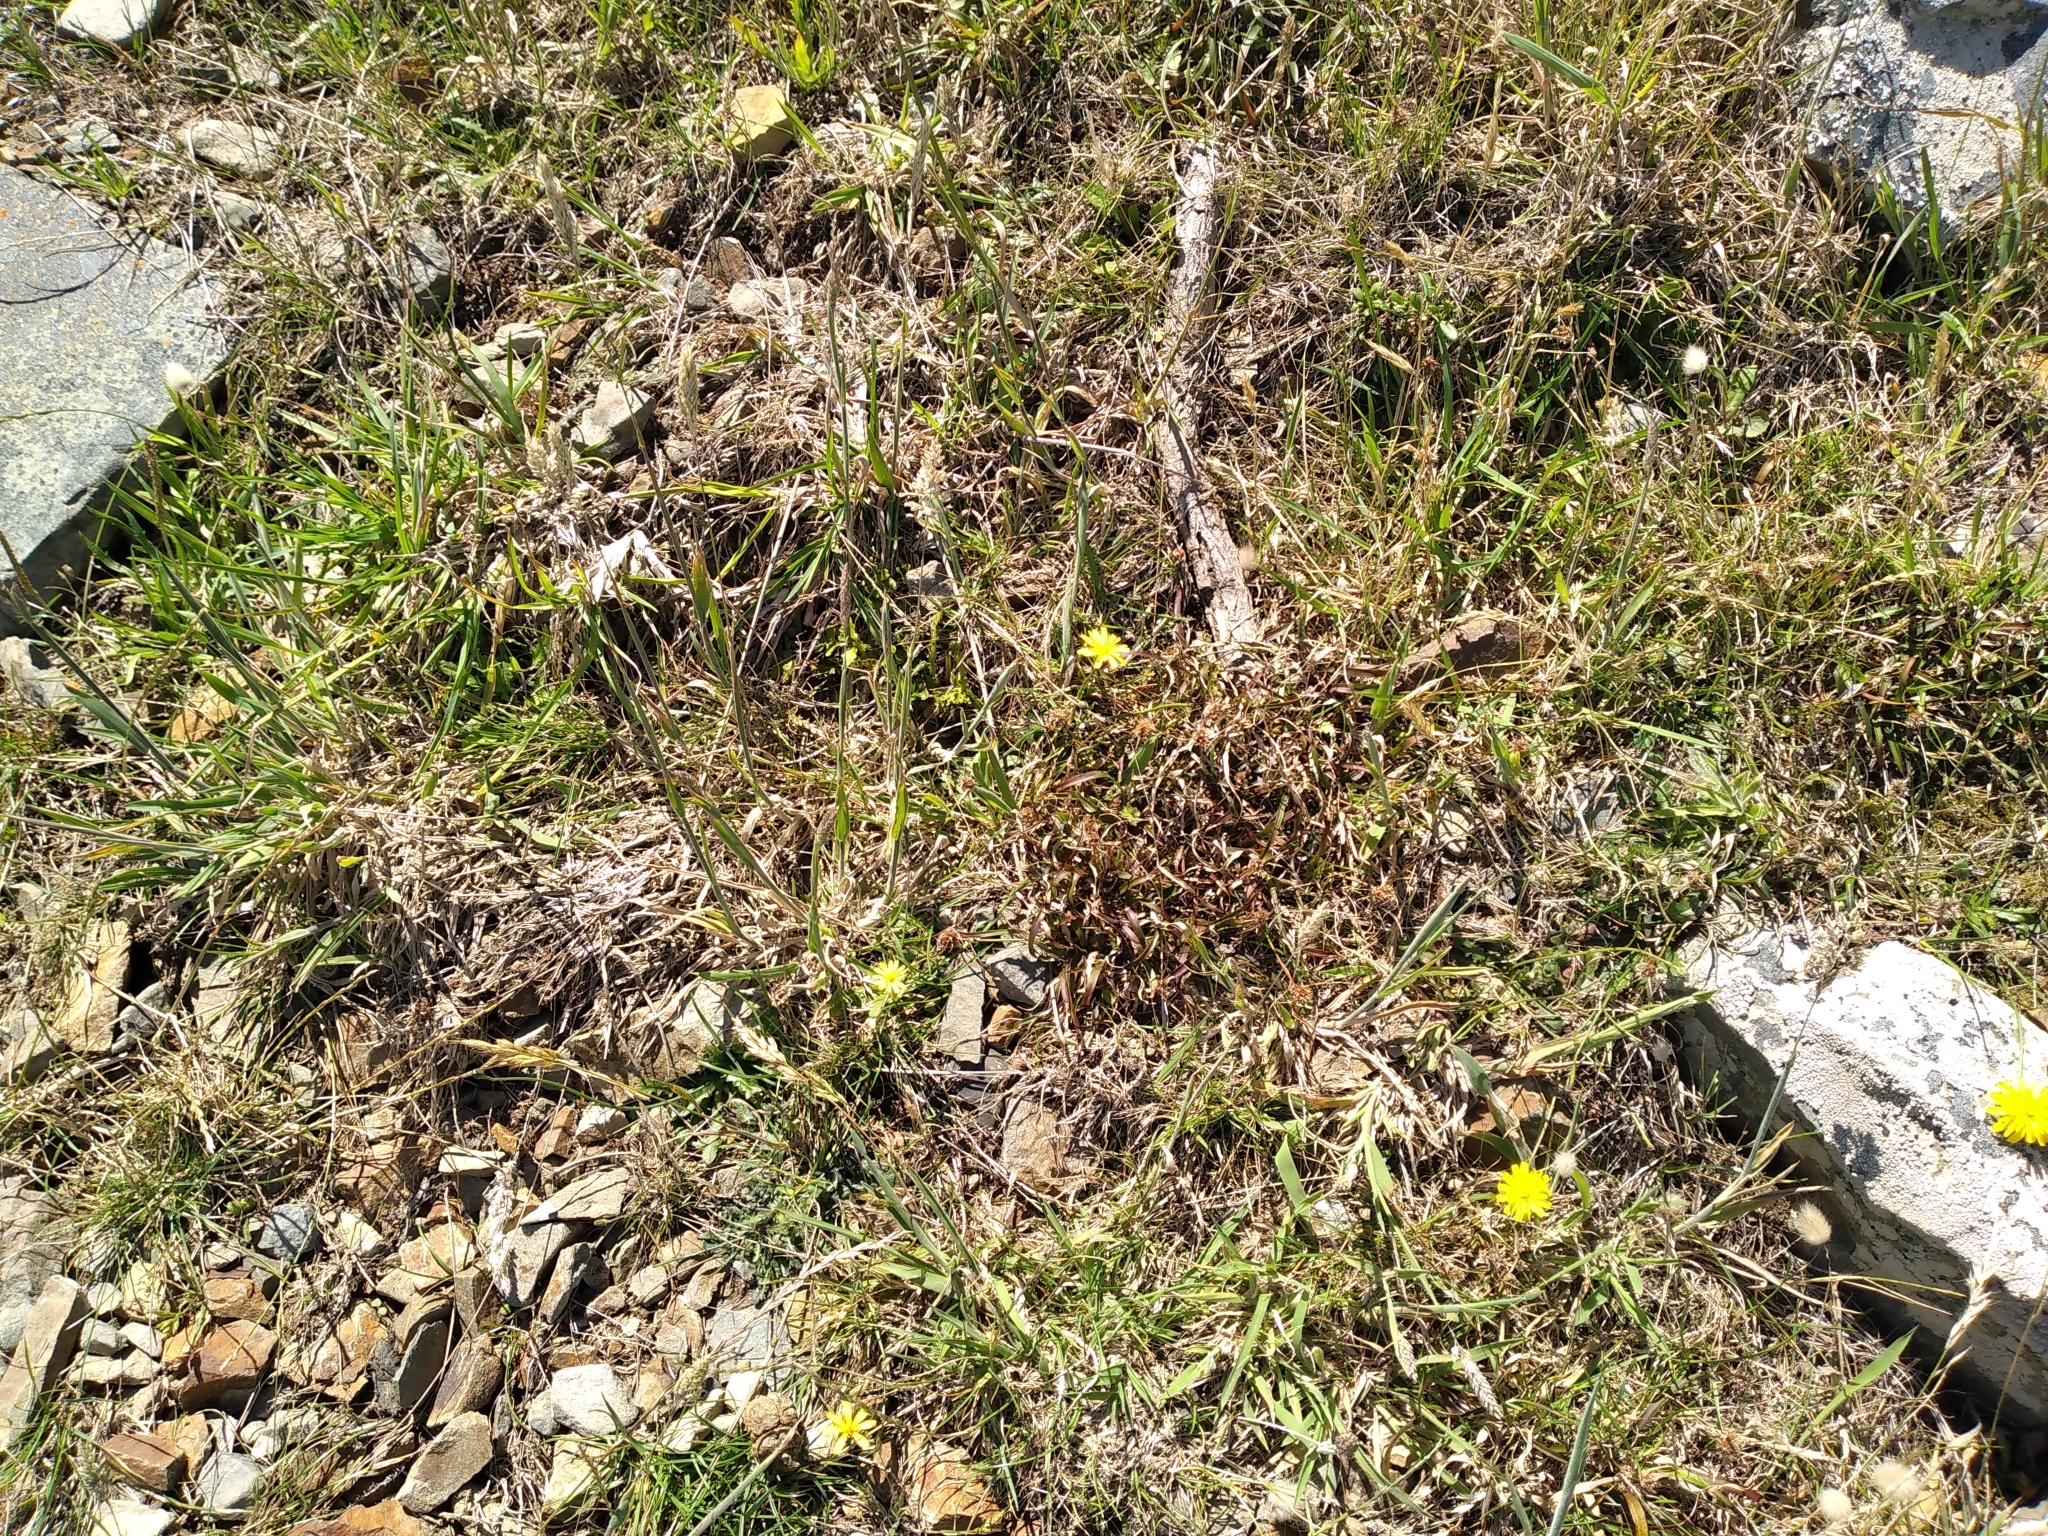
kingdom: Plantae
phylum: Tracheophyta
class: Liliopsida
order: Poales
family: Juncaceae
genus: Luzula
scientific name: Luzula banksiana
